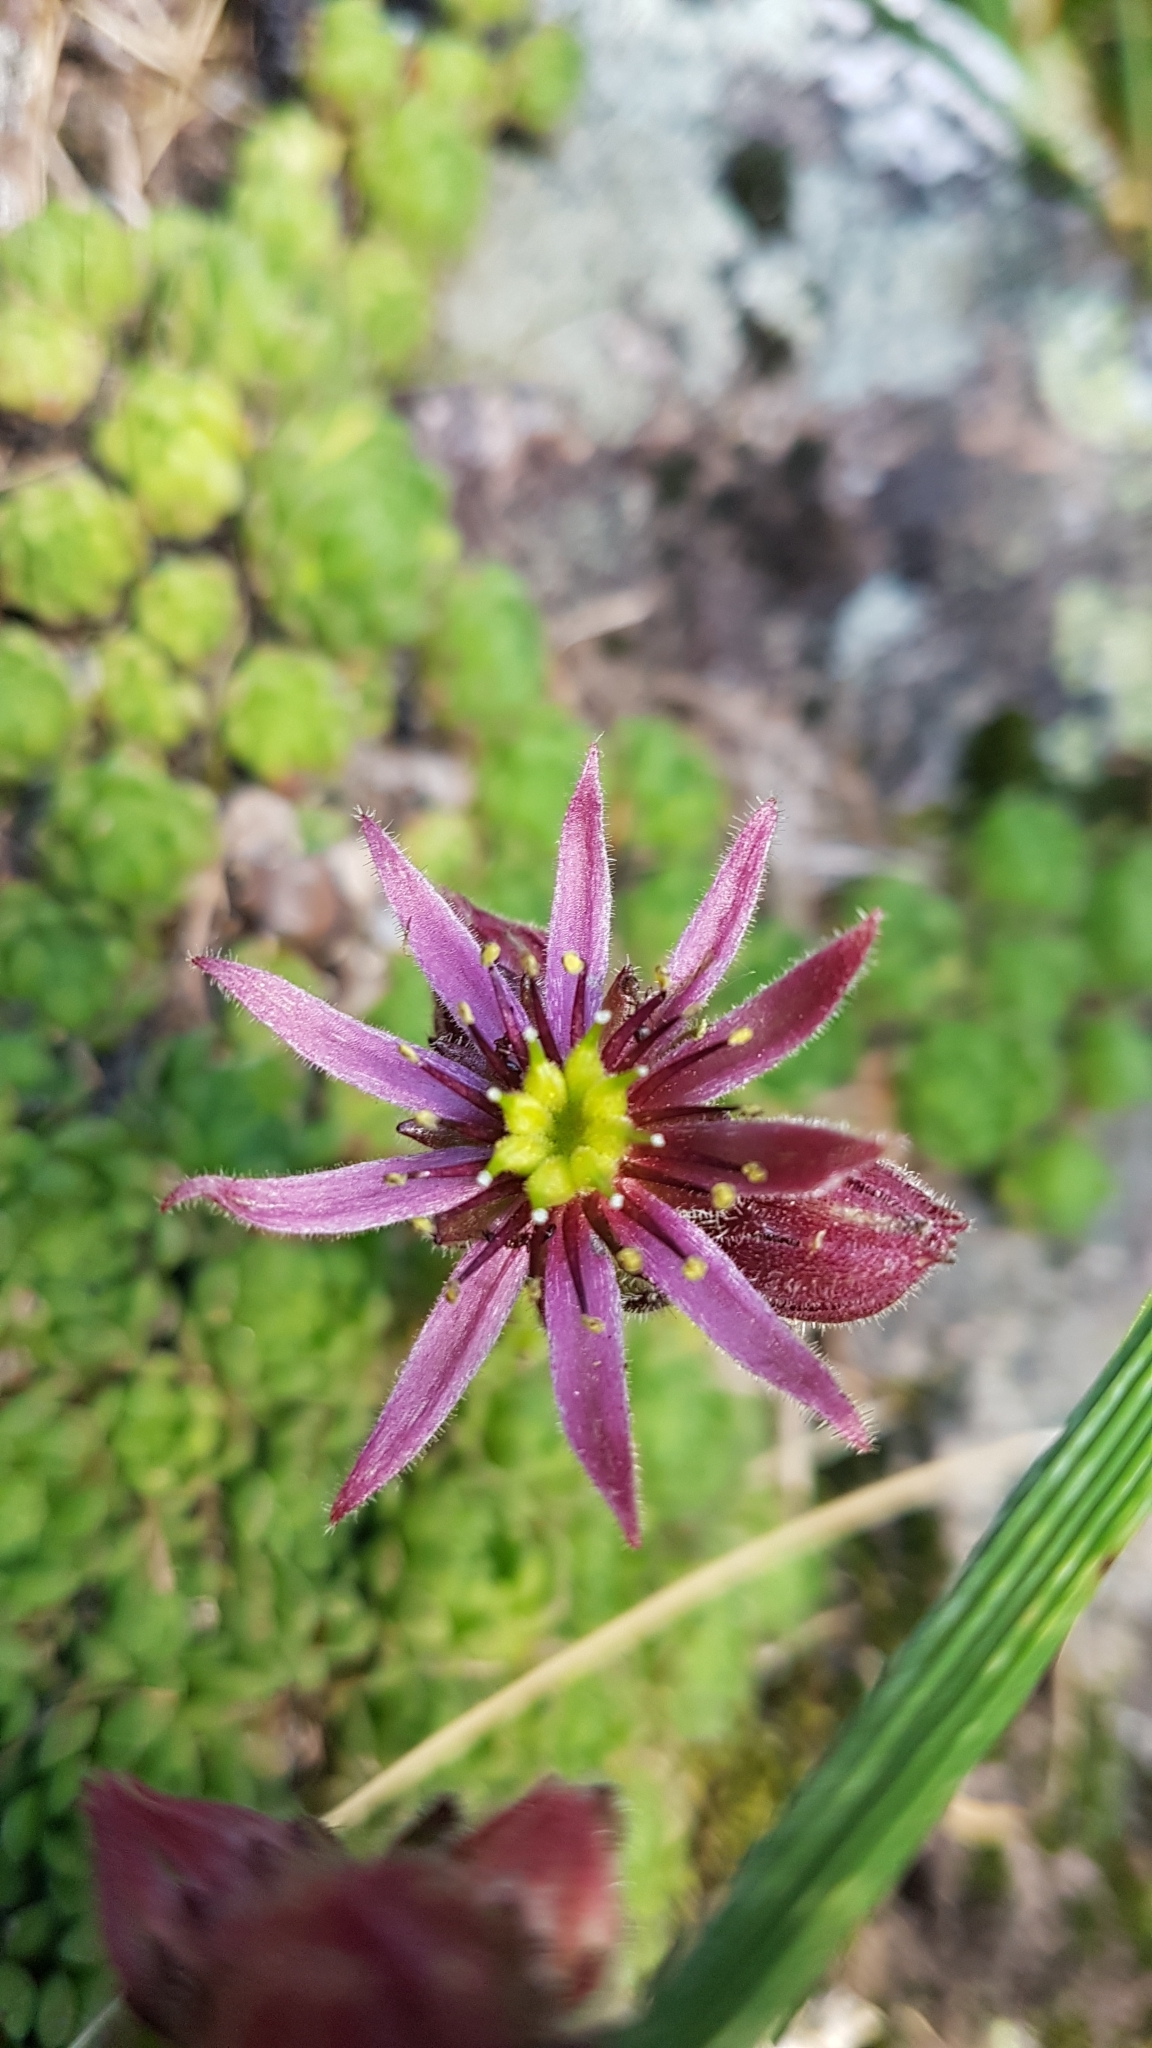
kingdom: Plantae
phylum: Tracheophyta
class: Magnoliopsida
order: Saxifragales
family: Crassulaceae
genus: Sempervivum
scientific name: Sempervivum montanum
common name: Mountain house-leek
